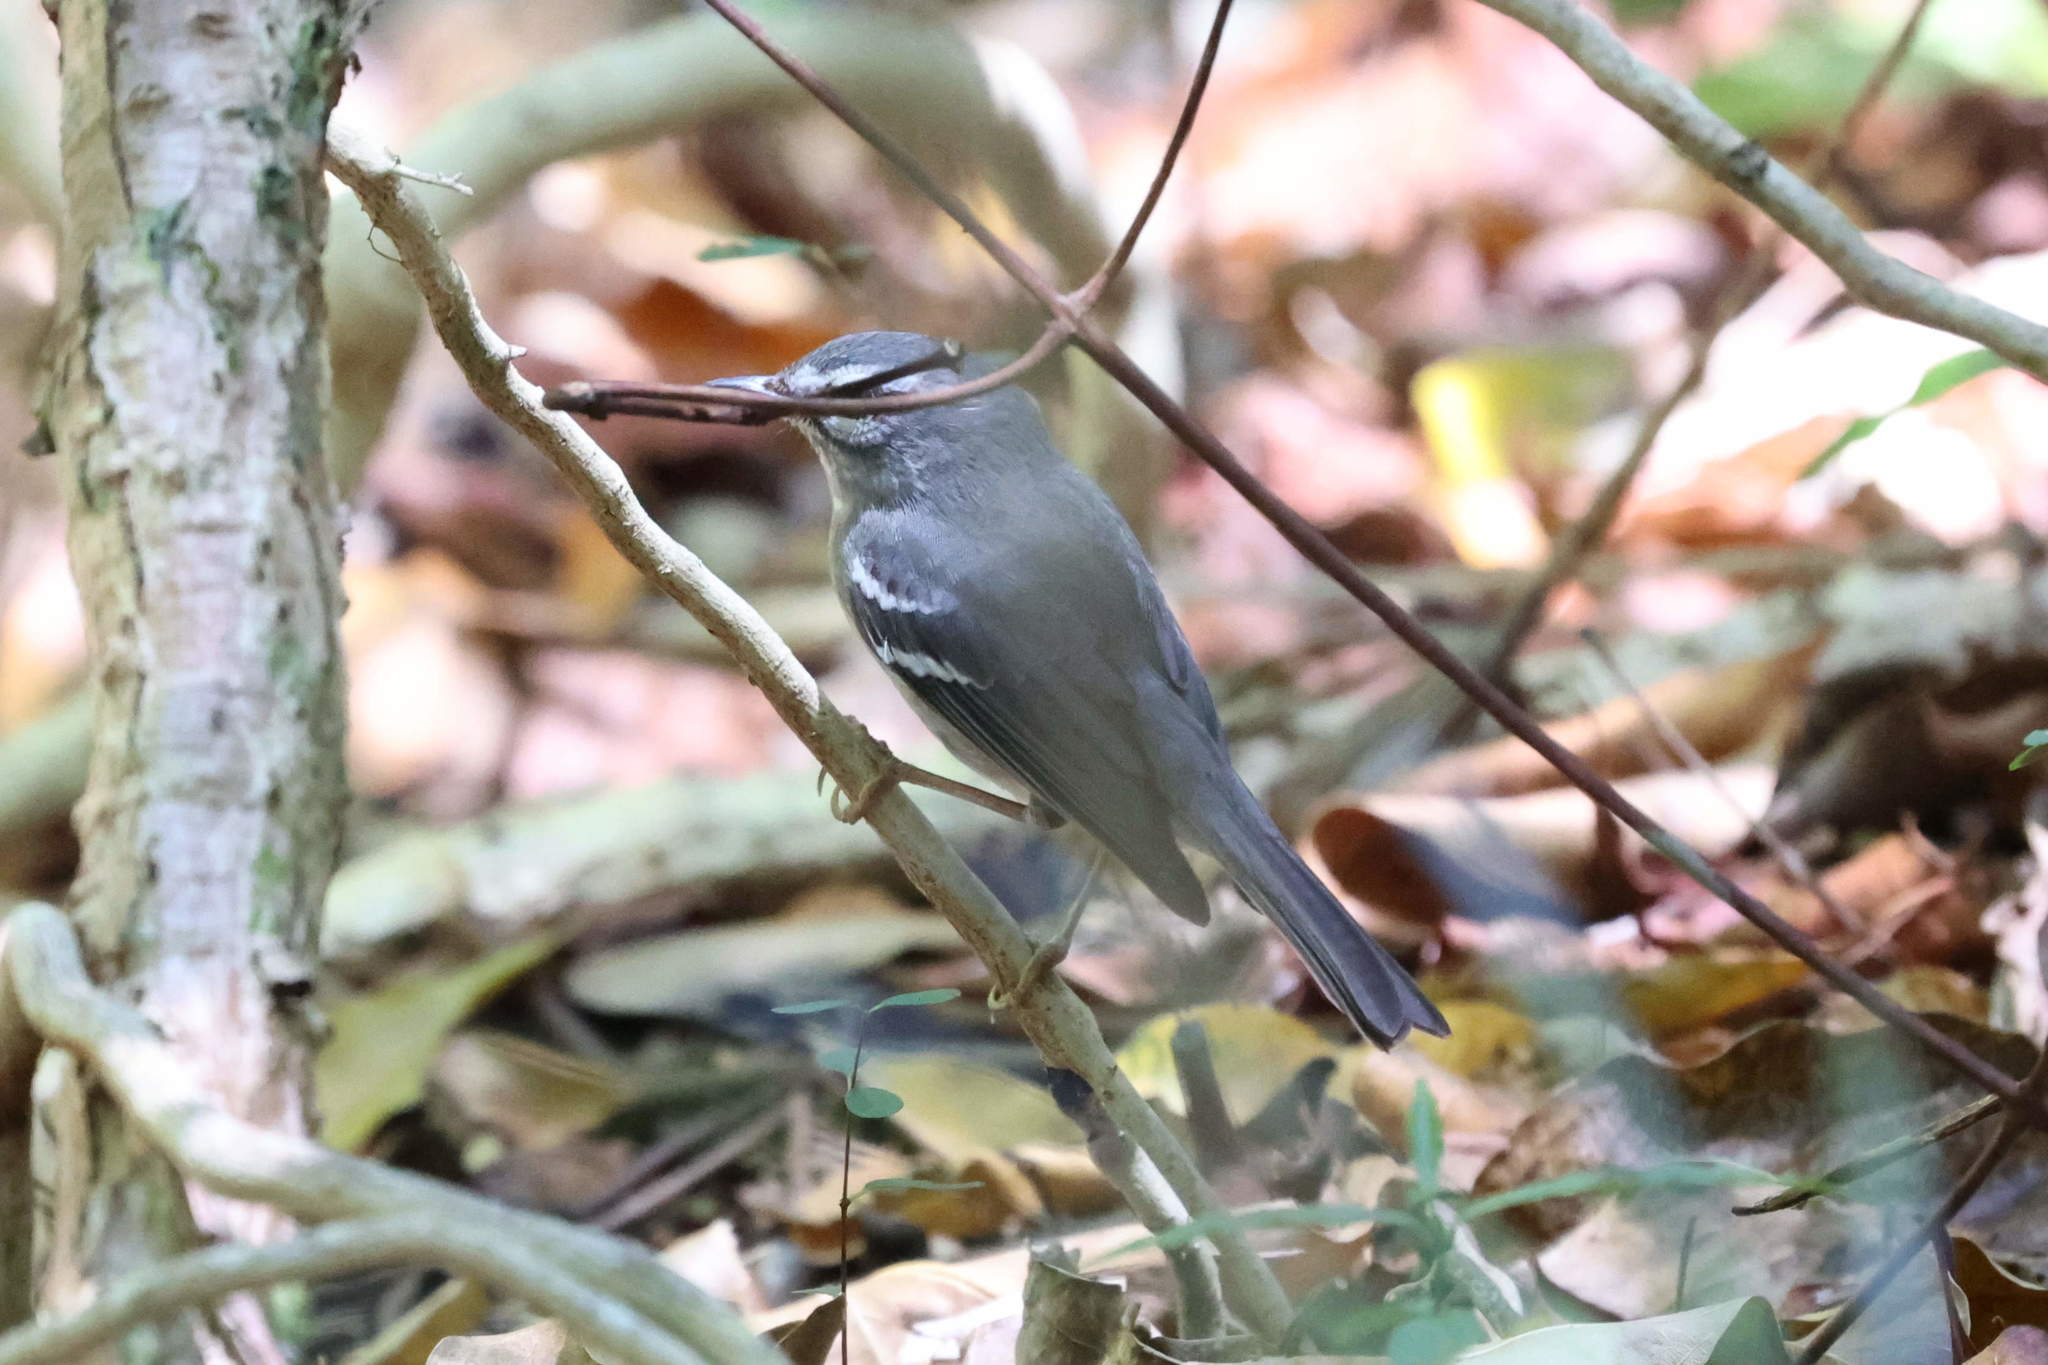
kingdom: Animalia
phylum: Chordata
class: Aves
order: Passeriformes
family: Parulidae
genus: Setophaga
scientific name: Setophaga plumbea
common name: Plumbeous warbler
